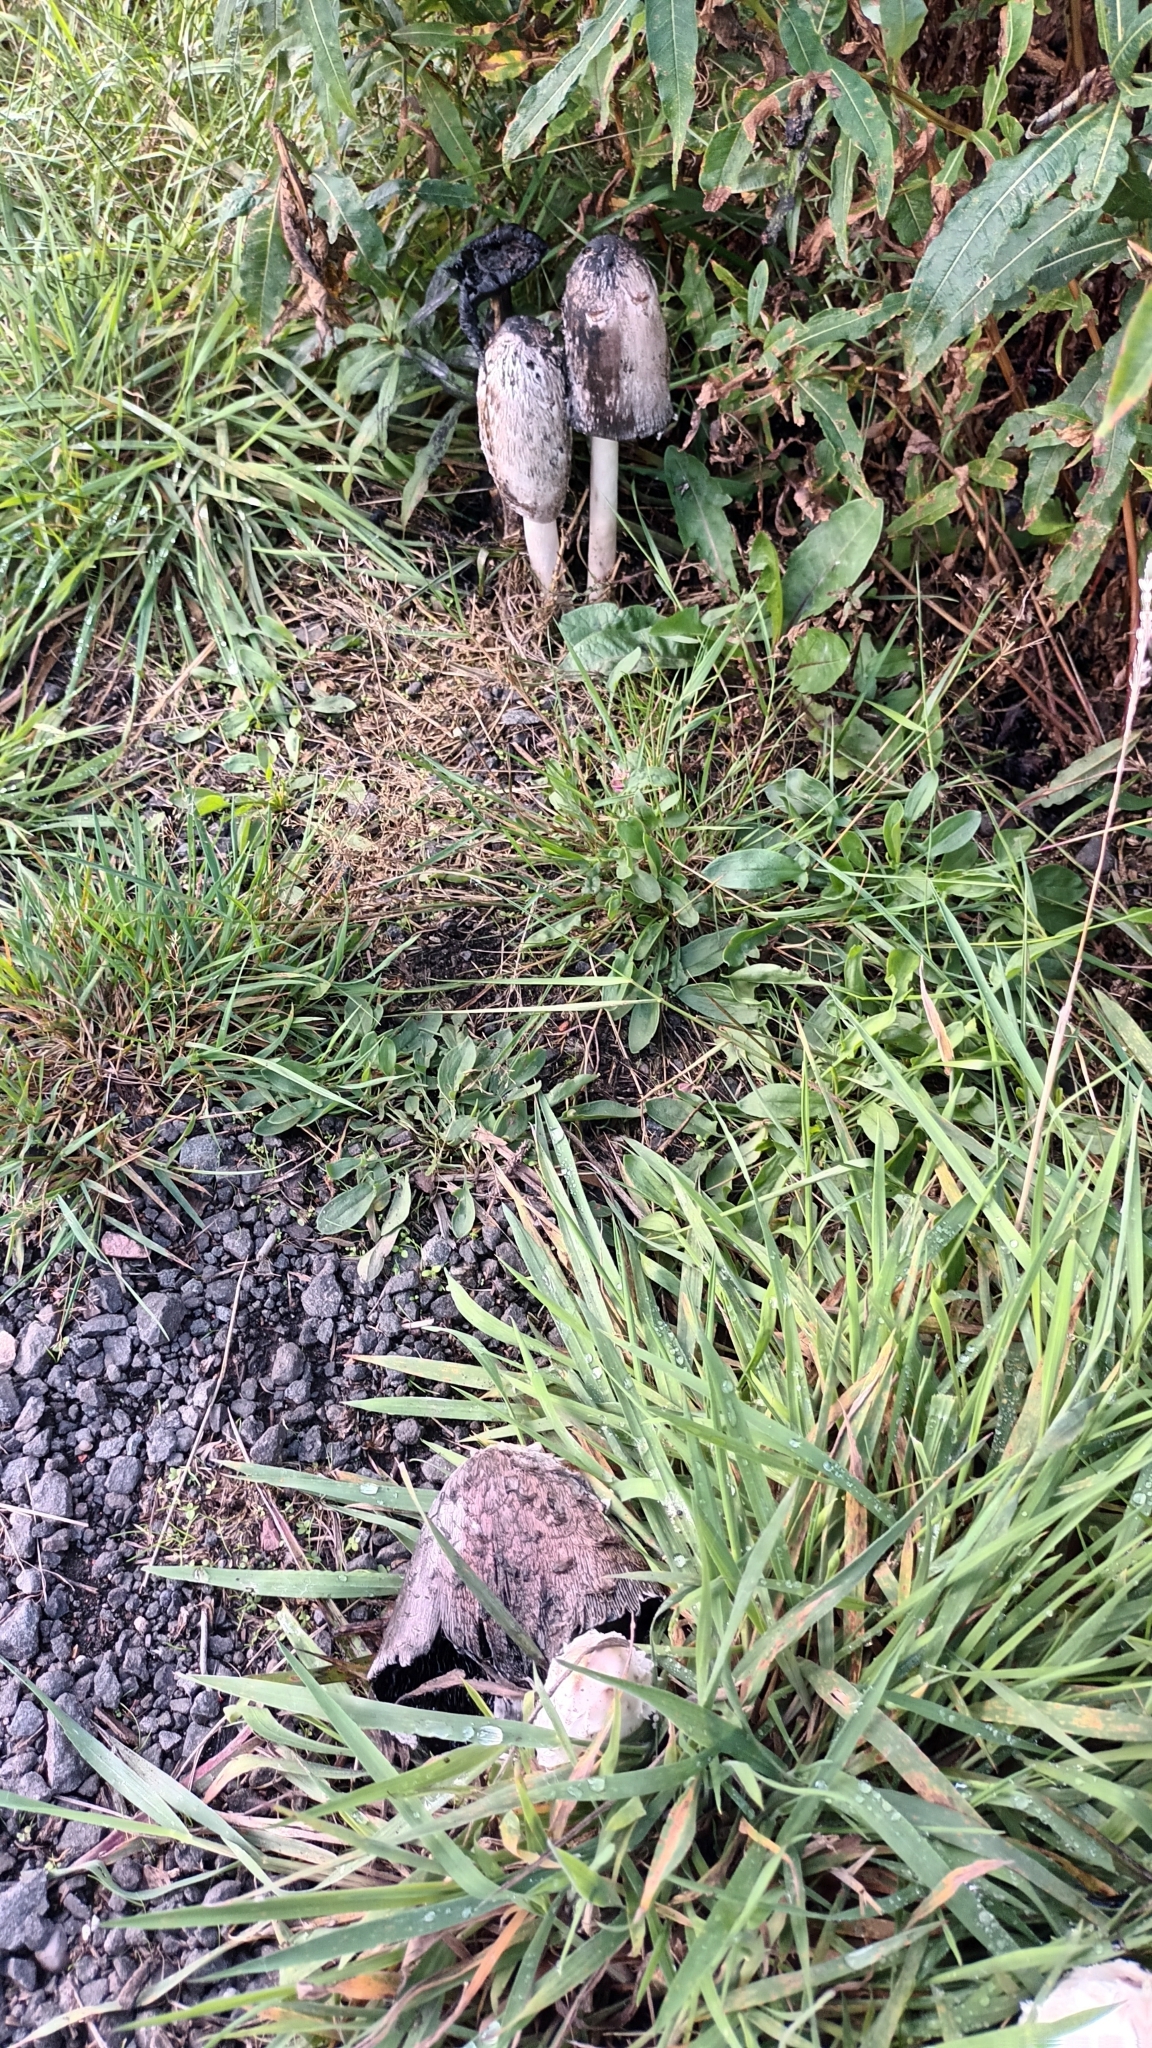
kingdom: Fungi
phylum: Basidiomycota
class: Agaricomycetes
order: Agaricales
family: Agaricaceae
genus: Coprinus
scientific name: Coprinus comatus
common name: Lawyer's wig
